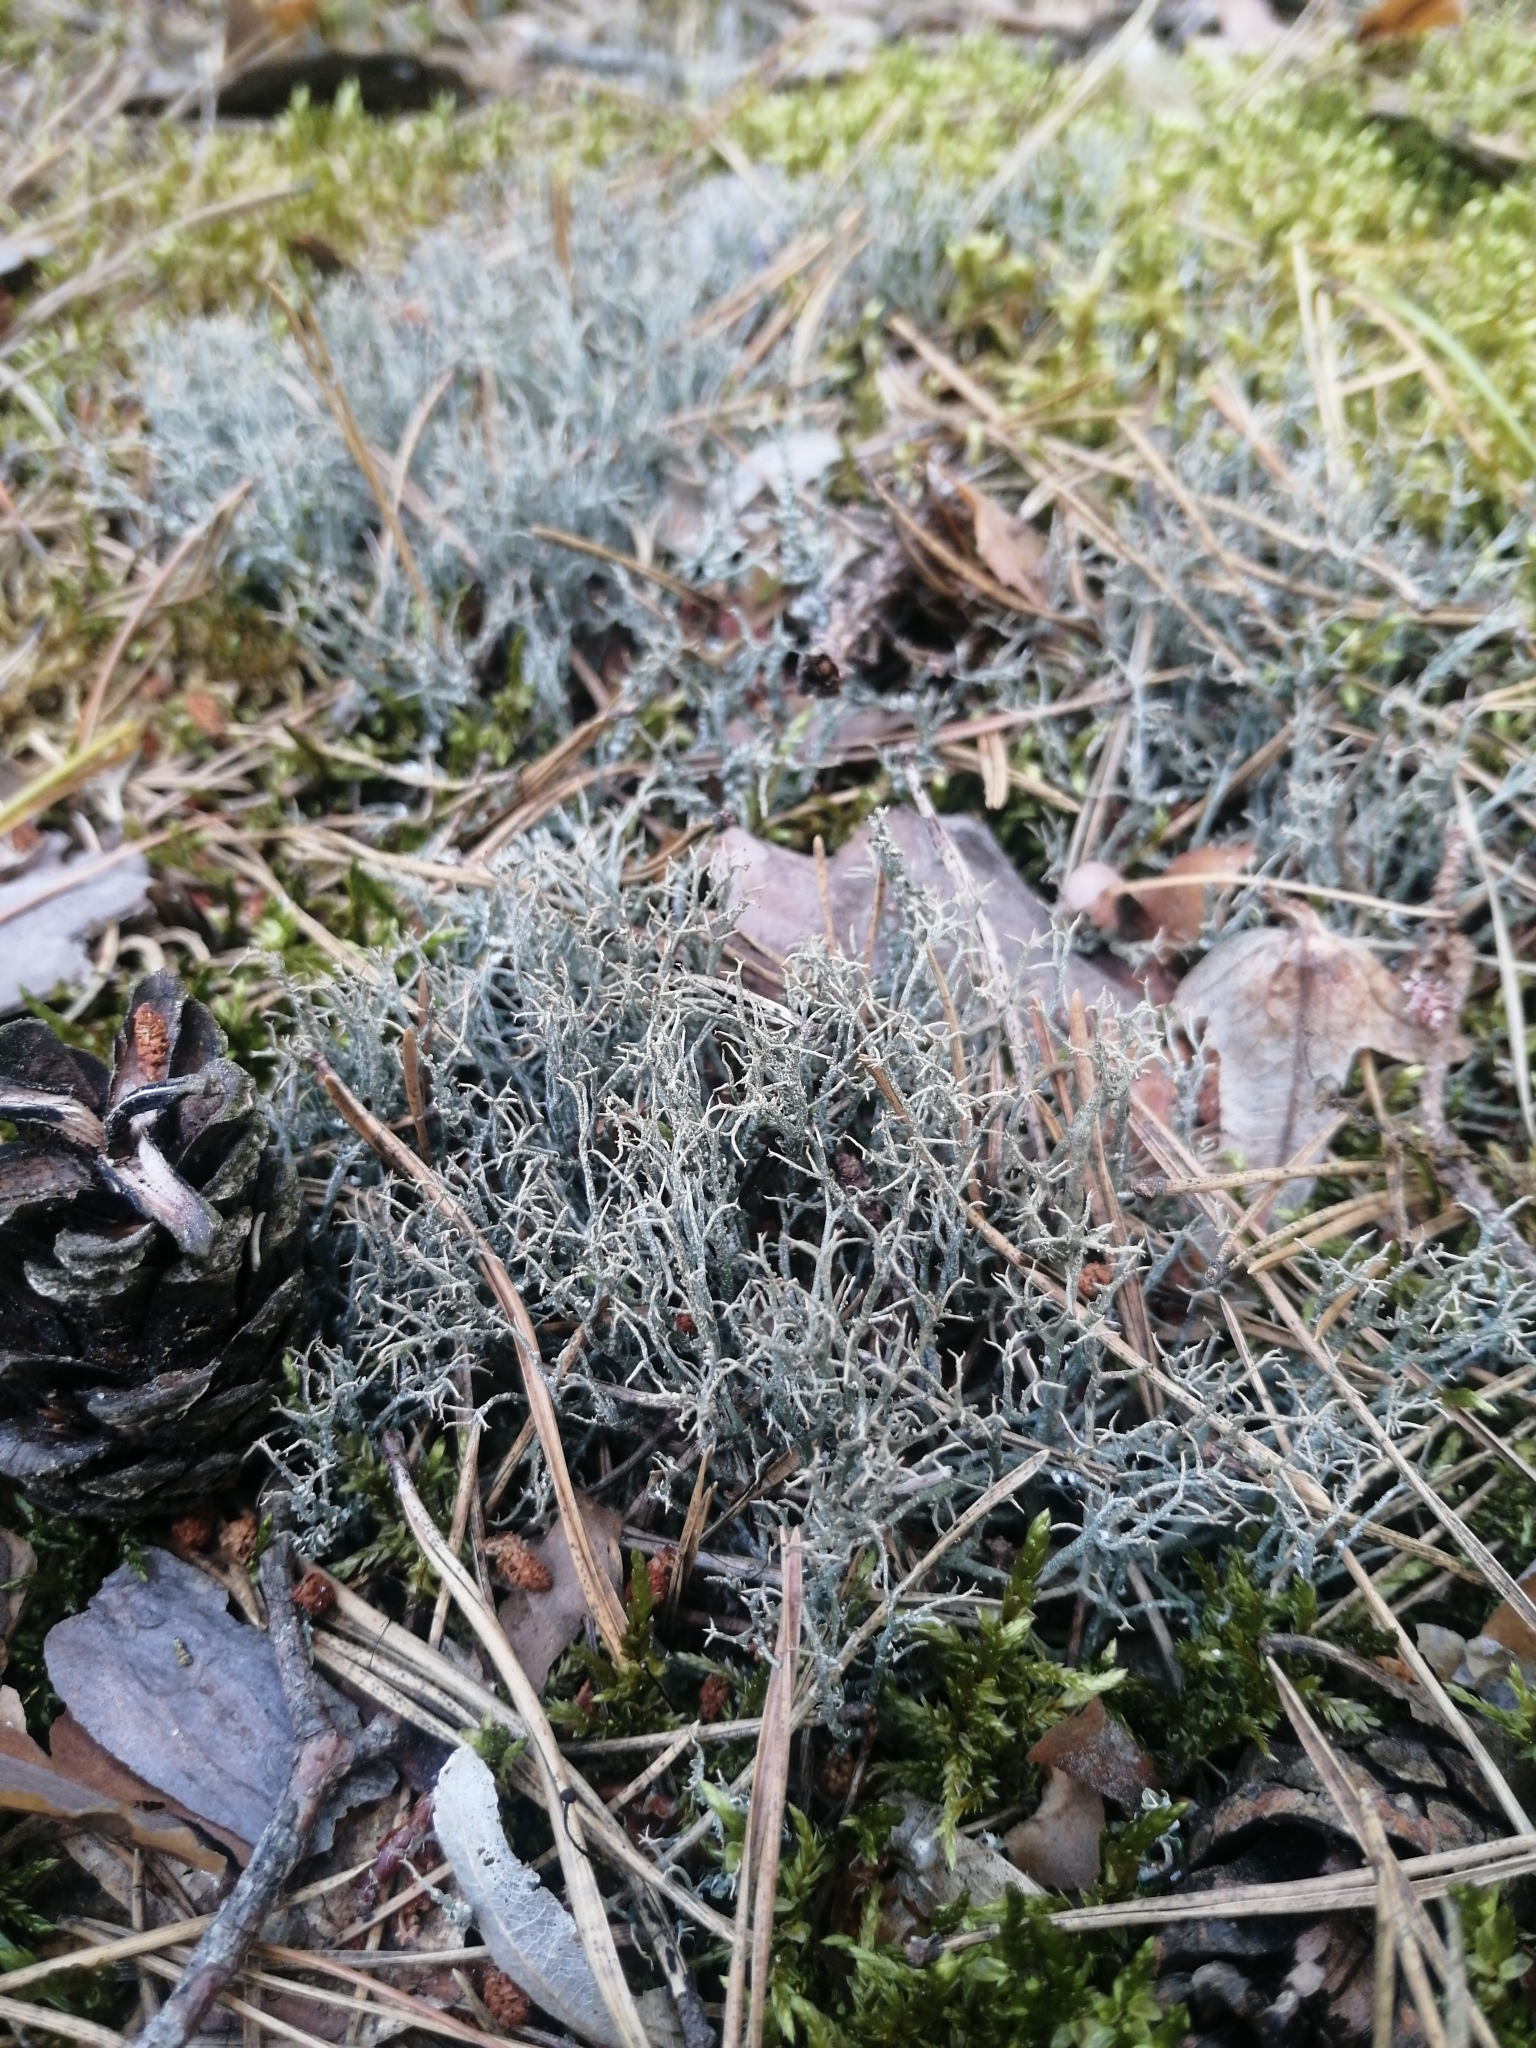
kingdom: Fungi
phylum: Ascomycota
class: Lecanoromycetes
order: Lecanorales
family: Cladoniaceae
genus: Cladonia
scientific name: Cladonia furcata
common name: Many-forked cladonia
